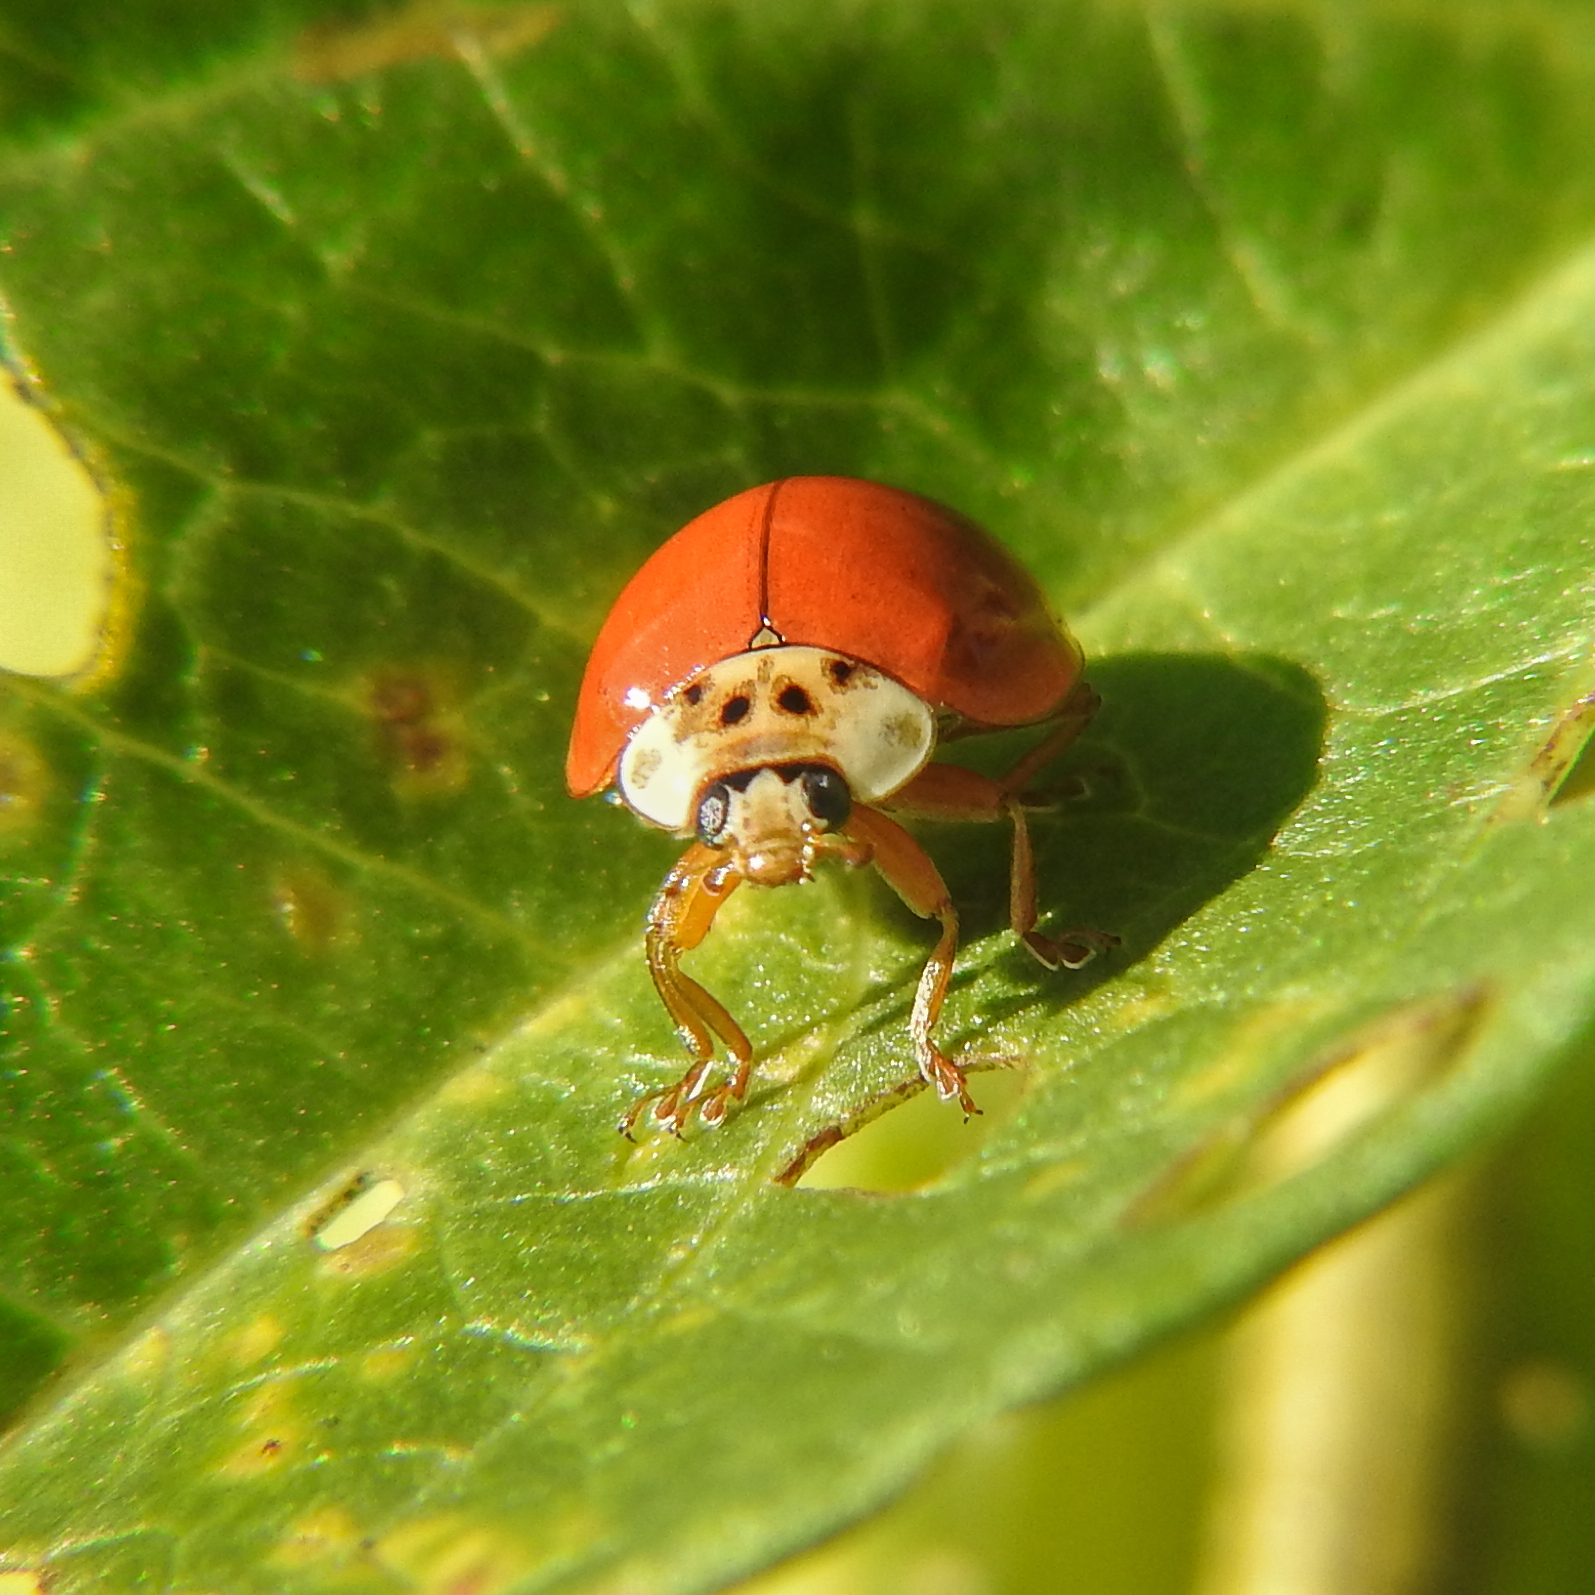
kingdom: Animalia
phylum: Arthropoda
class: Insecta
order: Coleoptera
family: Coccinellidae
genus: Harmonia
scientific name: Harmonia axyridis
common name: Harlequin ladybird
